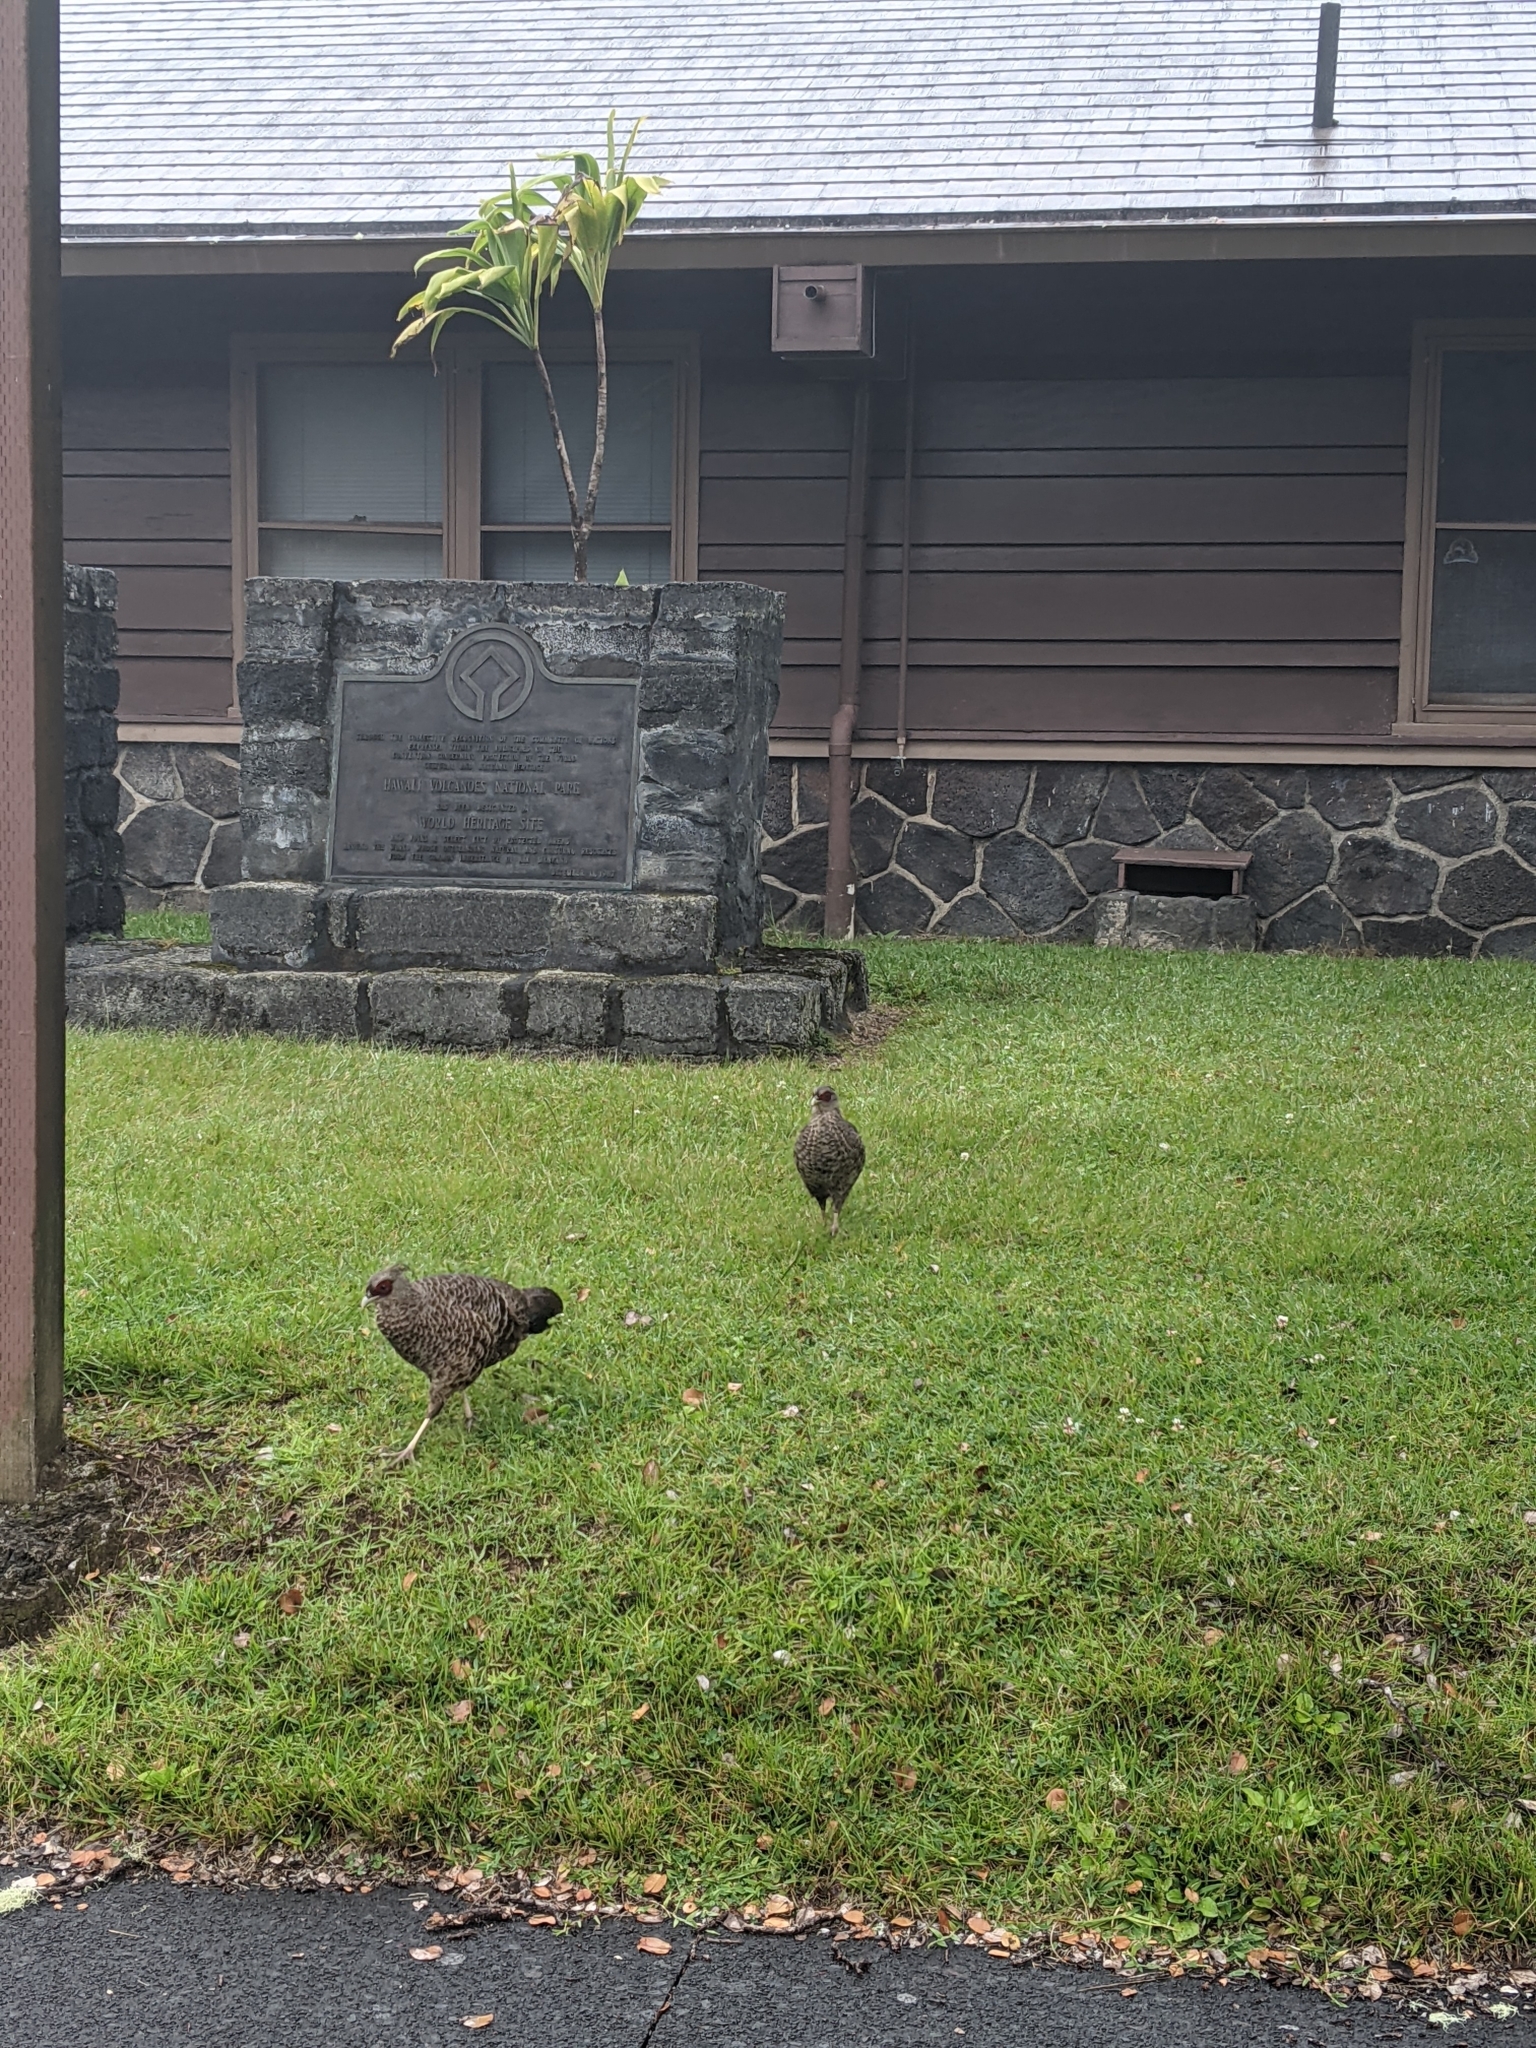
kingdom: Animalia
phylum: Chordata
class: Aves
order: Galliformes
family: Phasianidae
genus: Lophura
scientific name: Lophura leucomelanos
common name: Kalij pheasant
